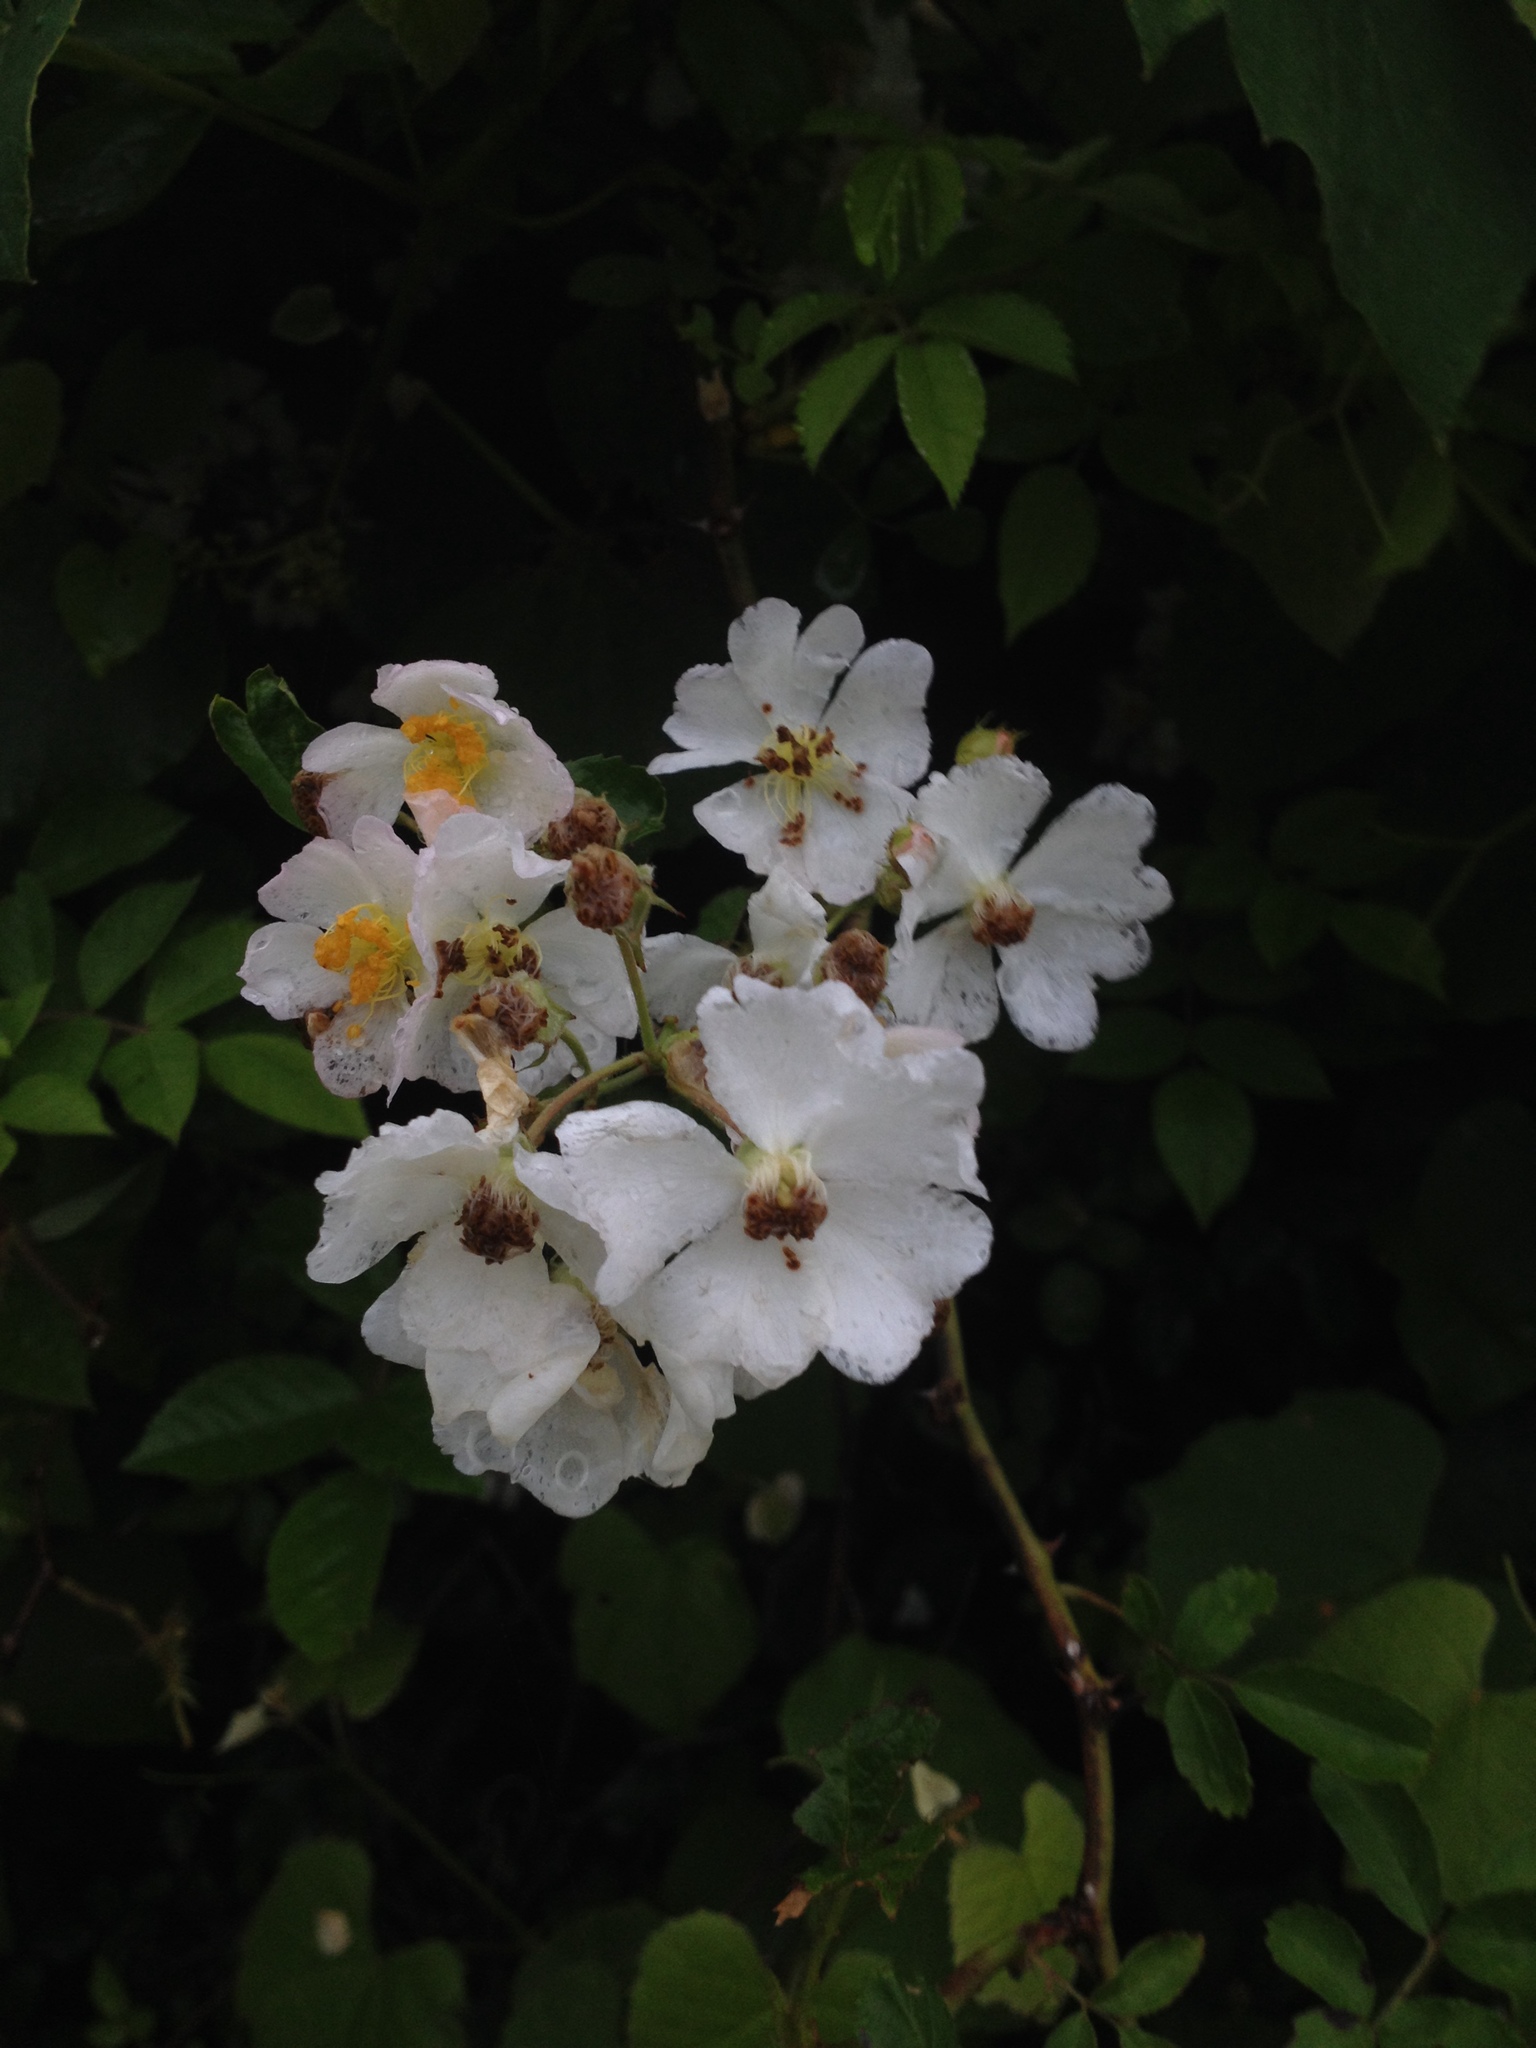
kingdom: Plantae
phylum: Tracheophyta
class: Magnoliopsida
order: Rosales
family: Rosaceae
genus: Rosa
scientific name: Rosa multiflora
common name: Multiflora rose
